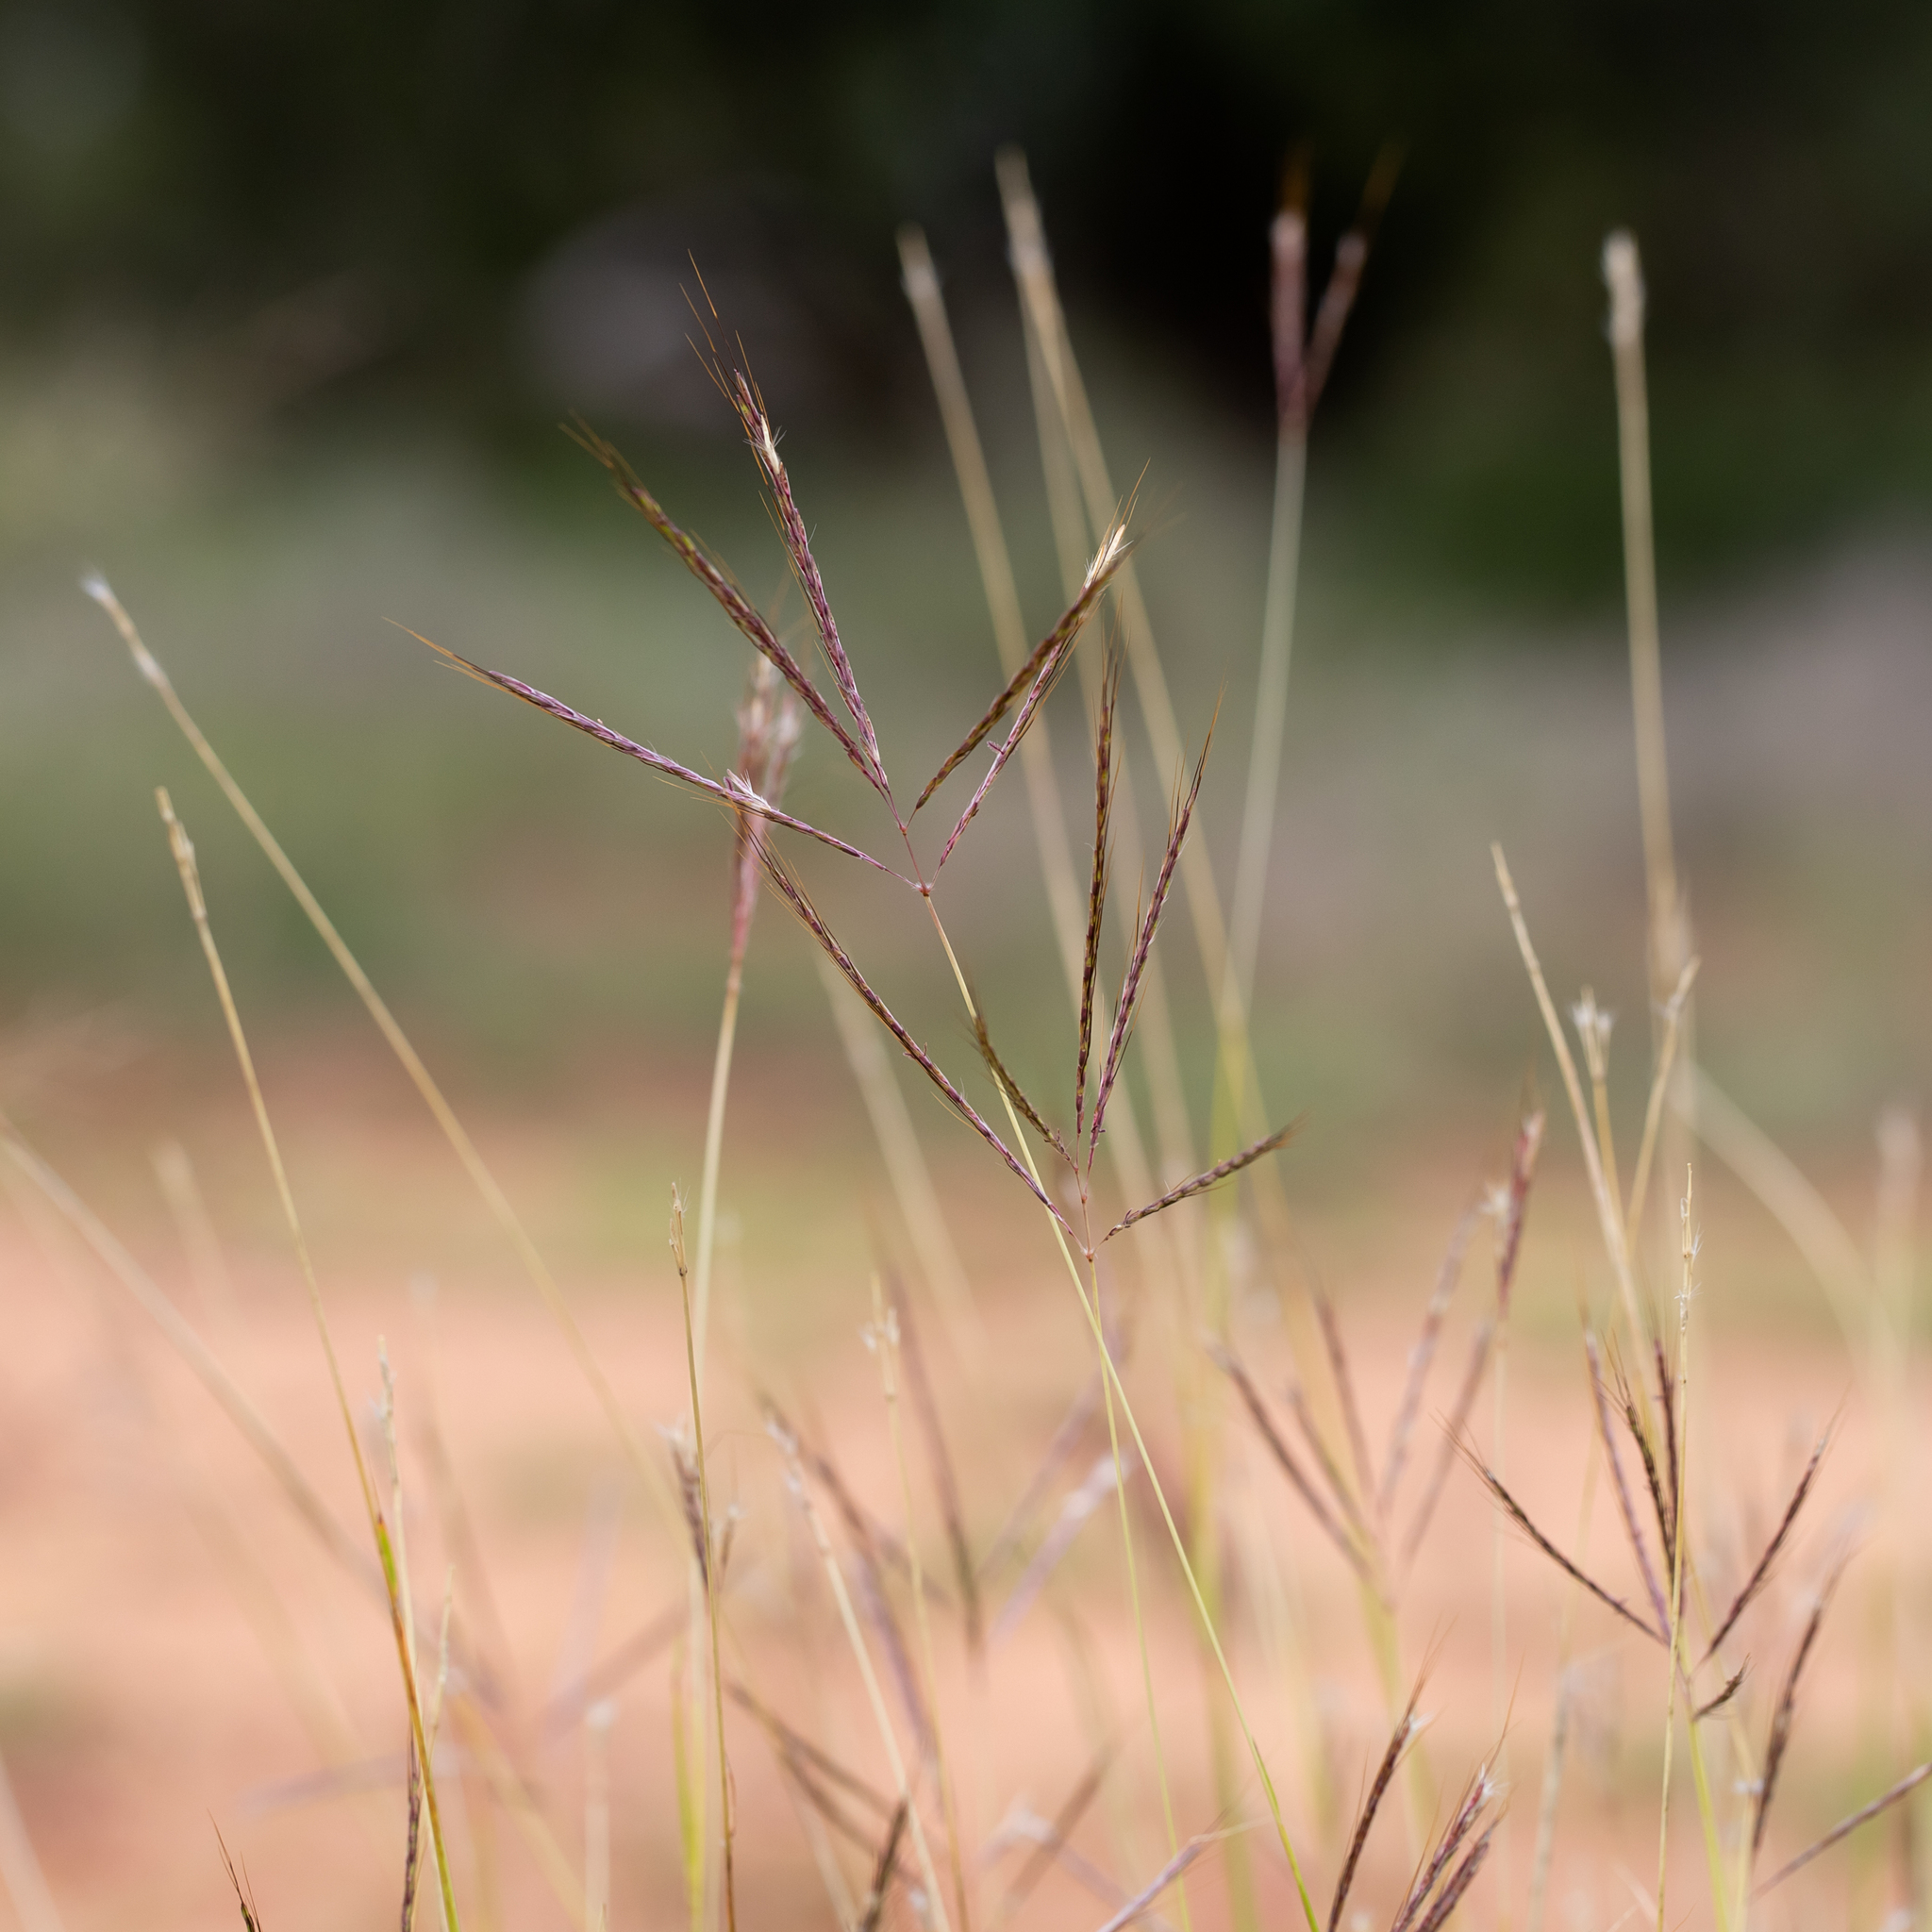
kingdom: Plantae
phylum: Tracheophyta
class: Liliopsida
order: Poales
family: Poaceae
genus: Bothriochloa
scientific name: Bothriochloa pertusa
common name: Pitted beardgrass
